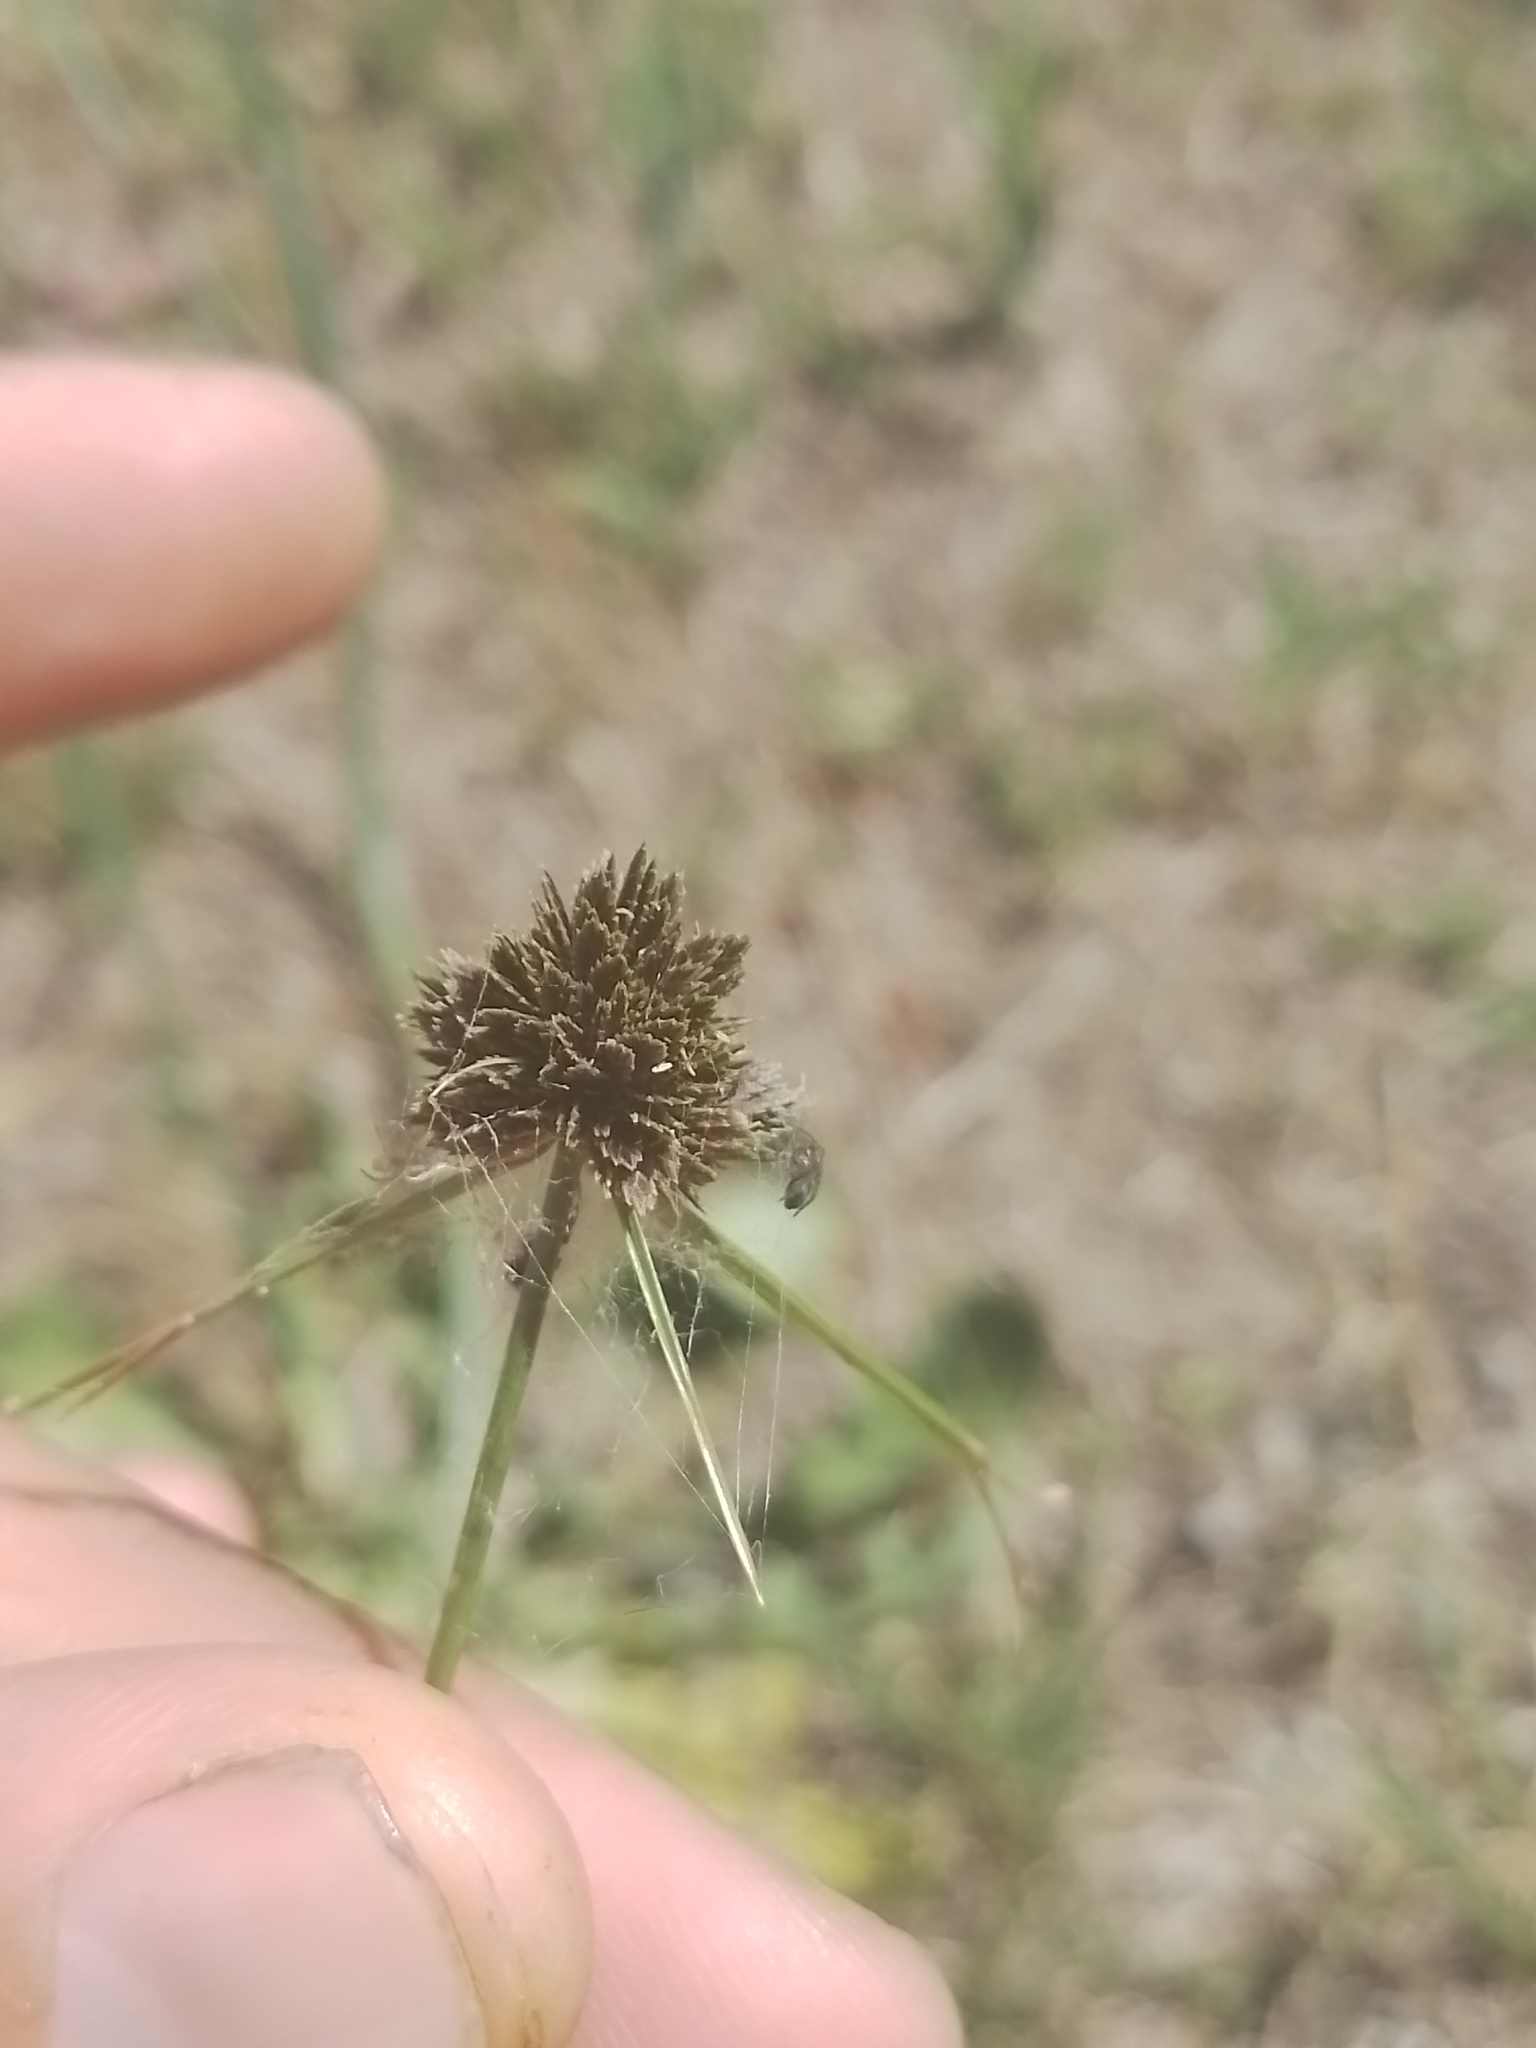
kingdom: Plantae
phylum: Tracheophyta
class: Liliopsida
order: Poales
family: Cyperaceae
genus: Cyperus
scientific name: Cyperus reflexus
